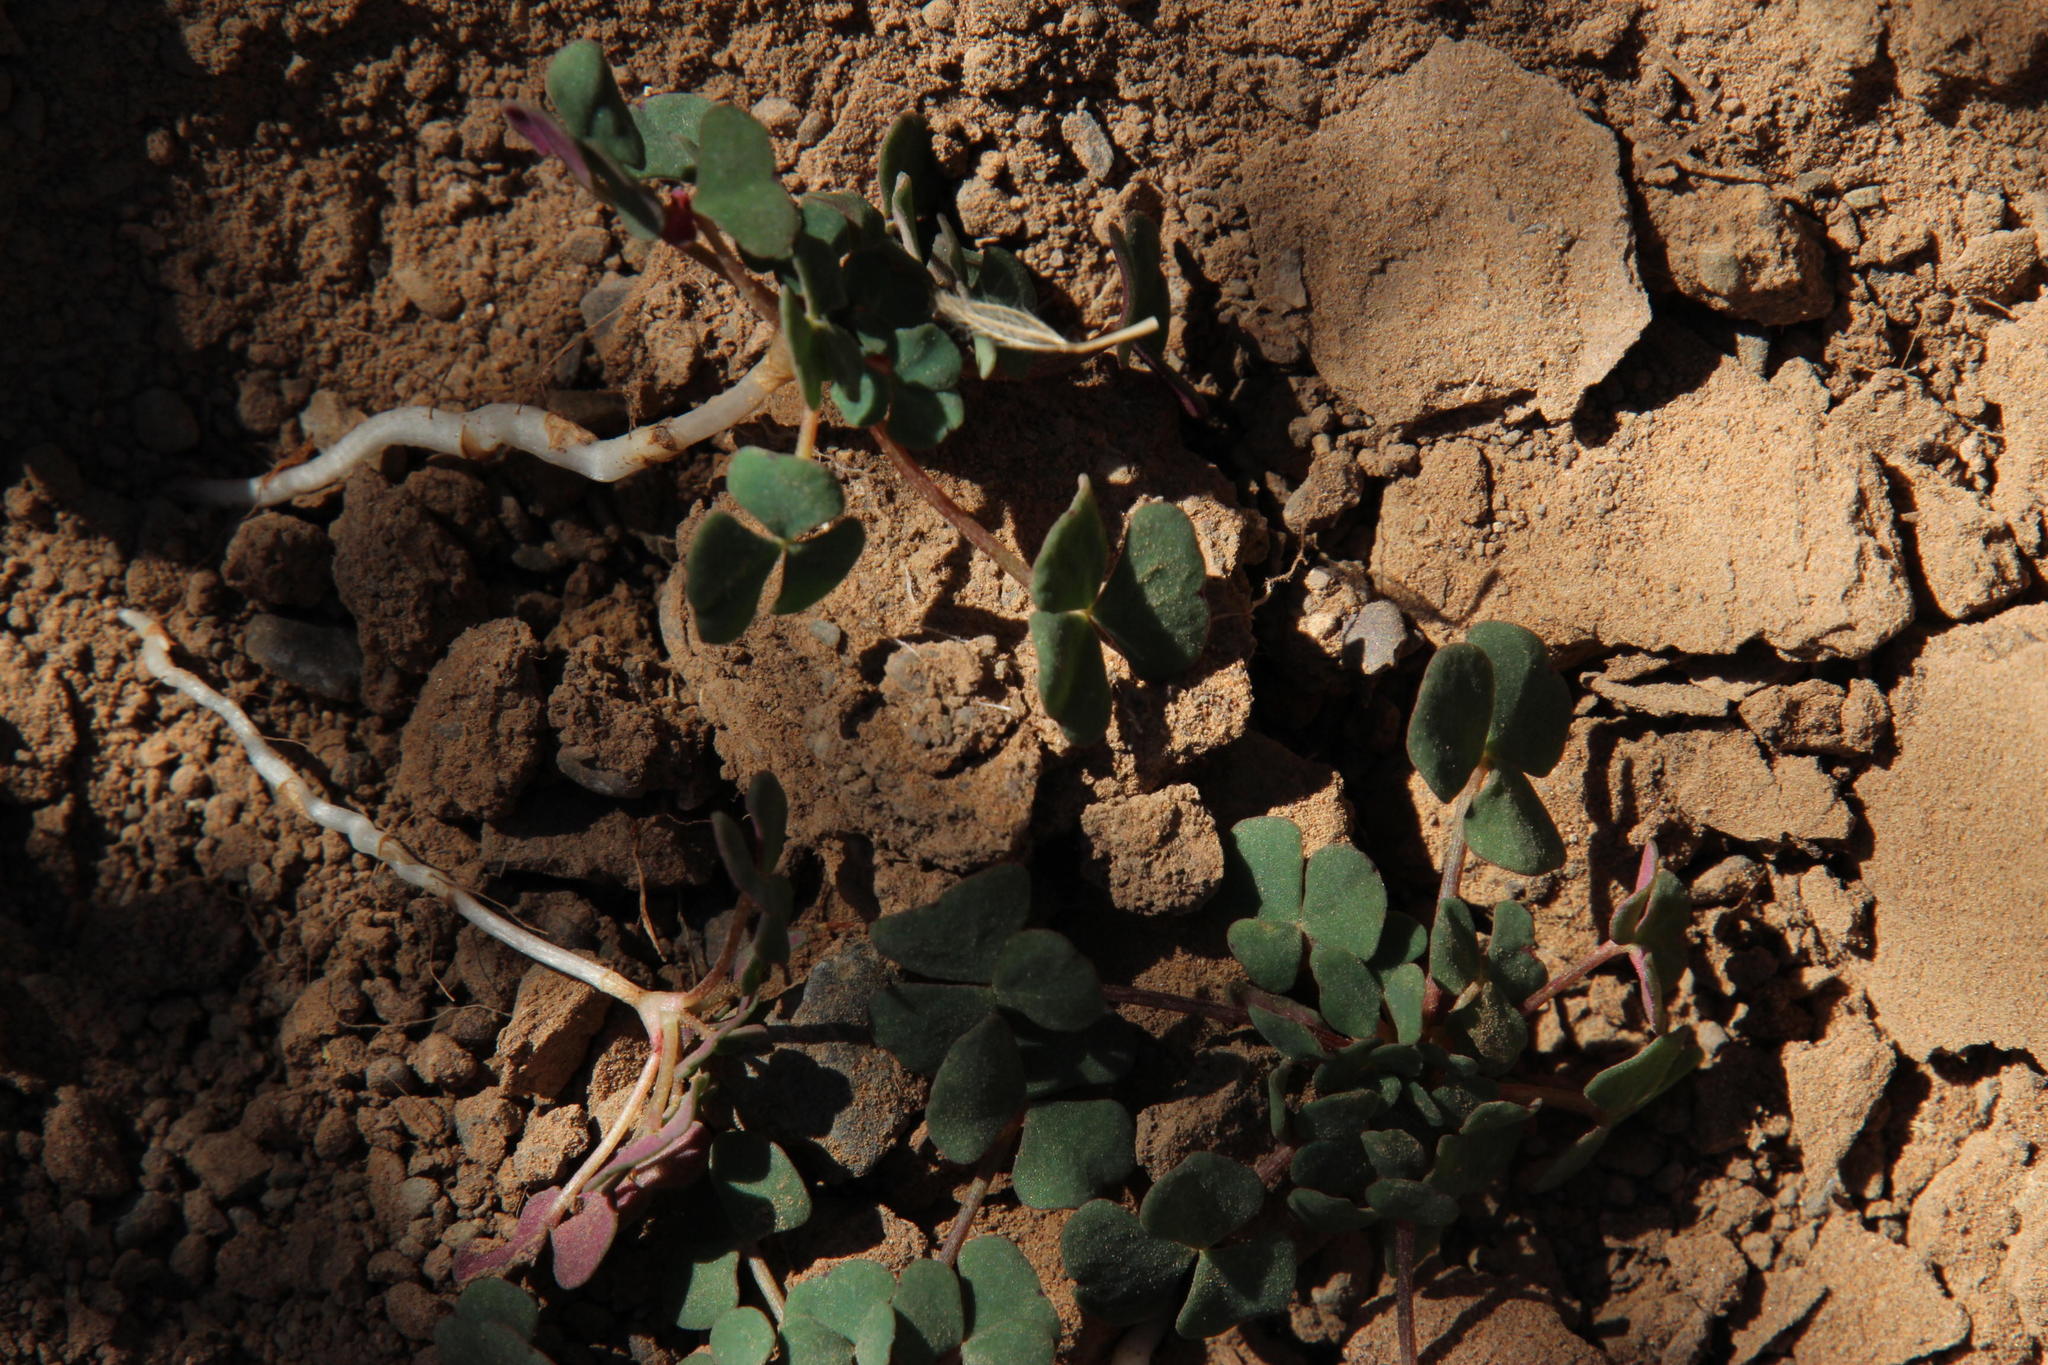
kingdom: Plantae
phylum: Tracheophyta
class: Magnoliopsida
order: Oxalidales
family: Oxalidaceae
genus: Oxalis
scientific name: Oxalis depressa
